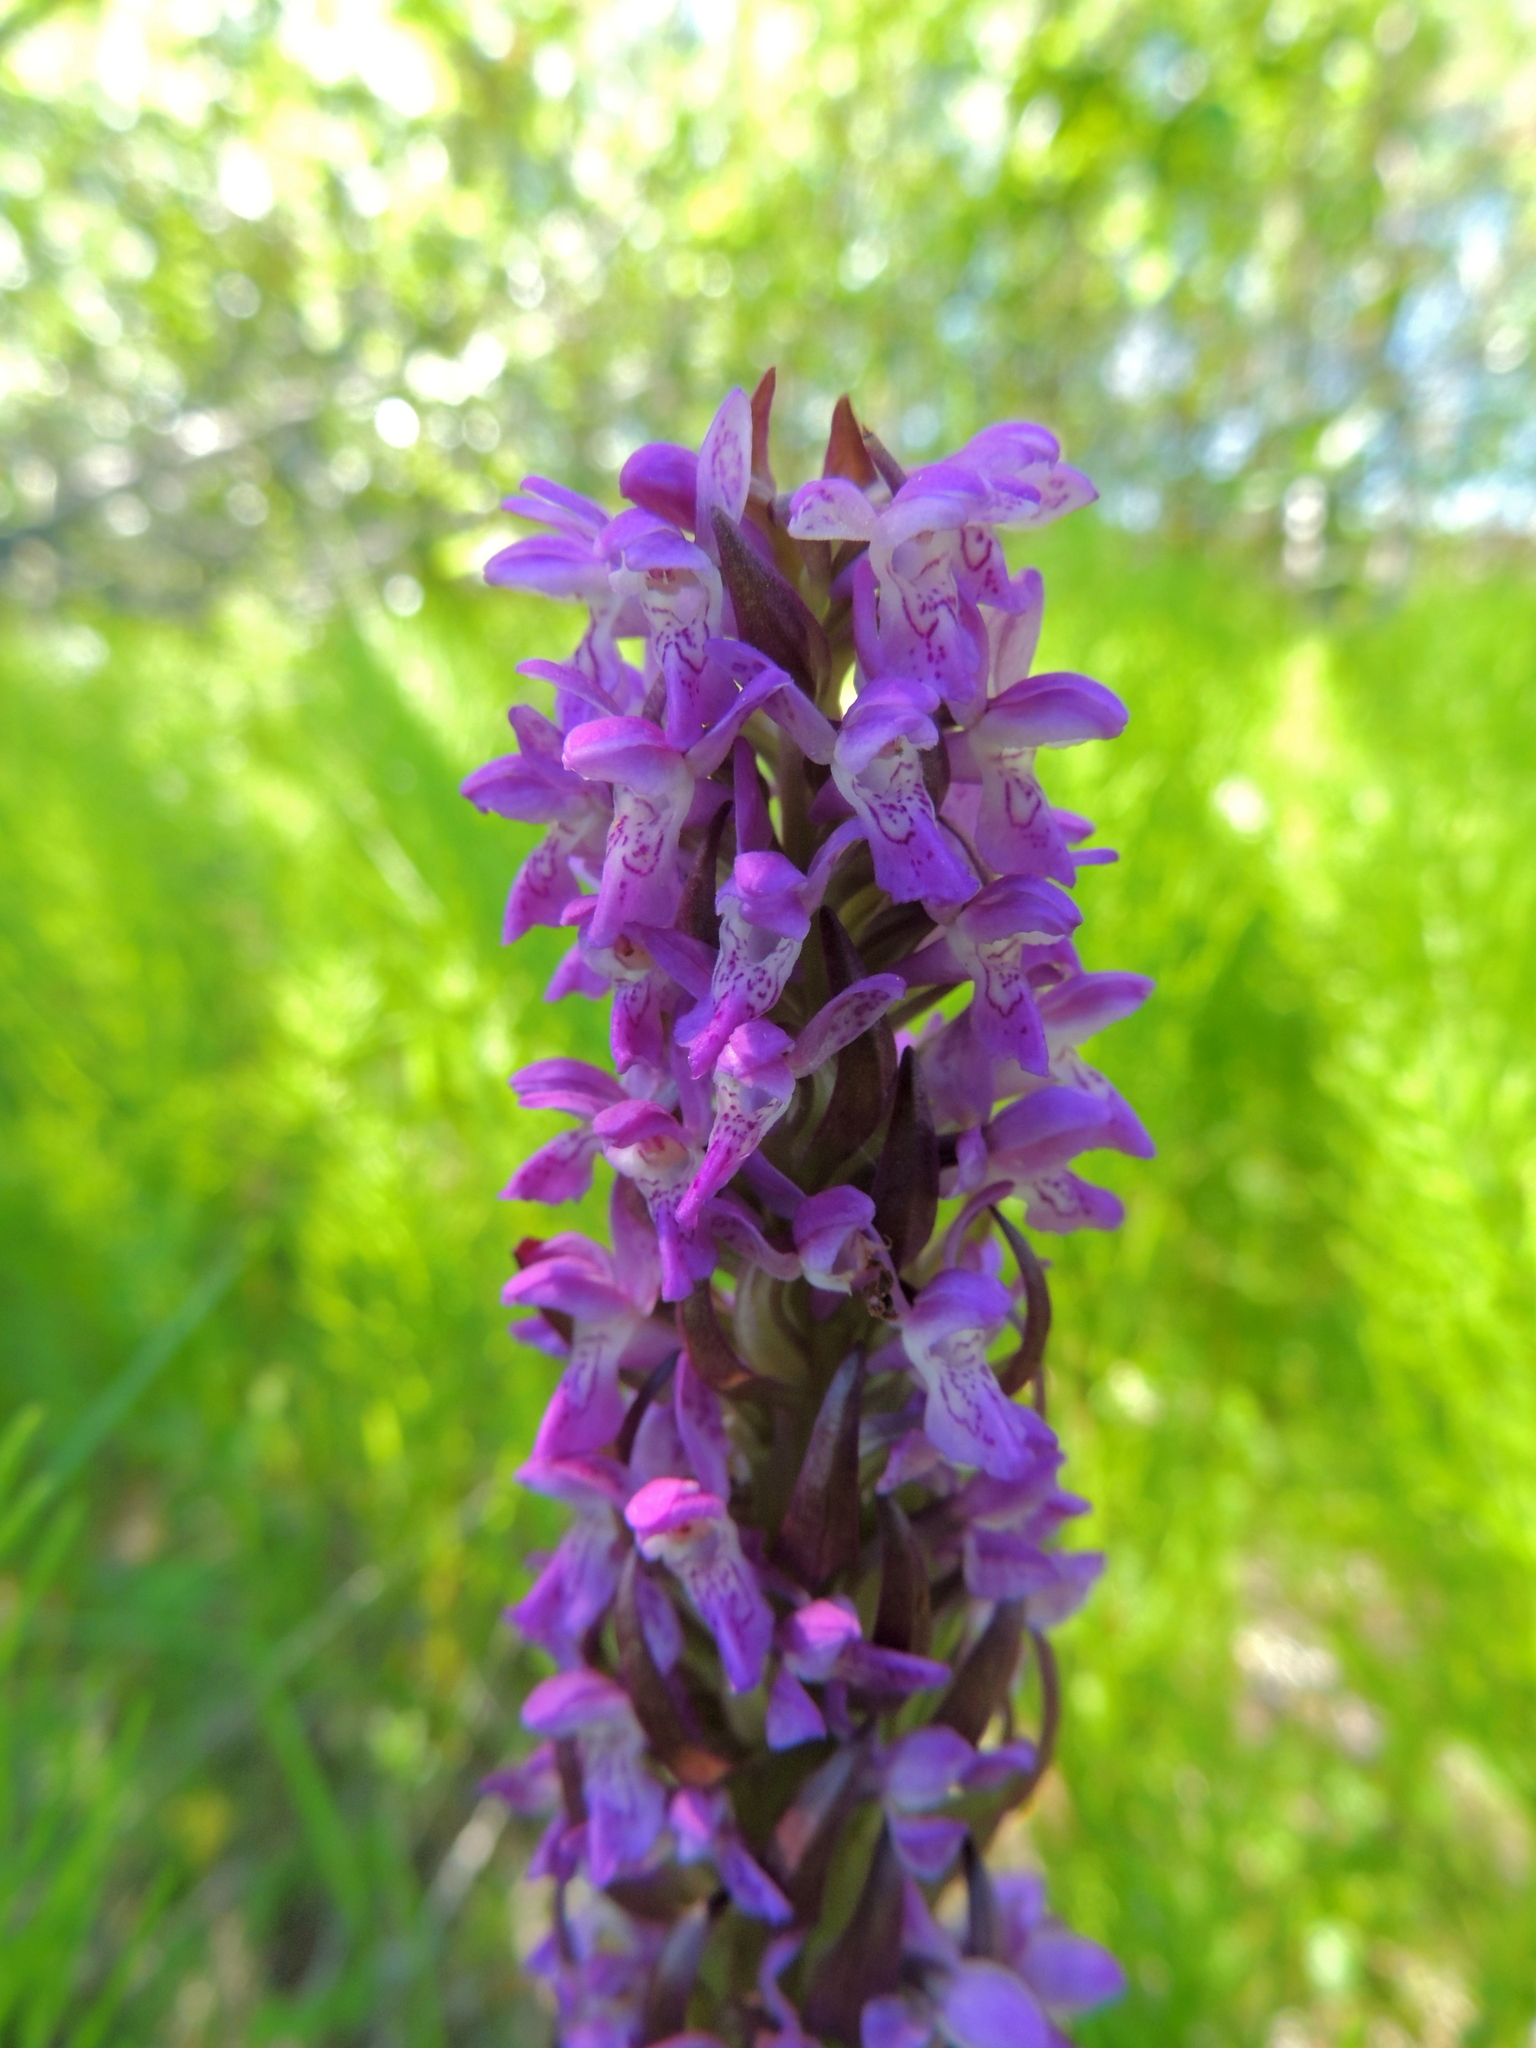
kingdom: Plantae
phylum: Tracheophyta
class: Liliopsida
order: Asparagales
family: Orchidaceae
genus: Dactylorhiza
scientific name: Dactylorhiza incarnata
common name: Early marsh-orchid
